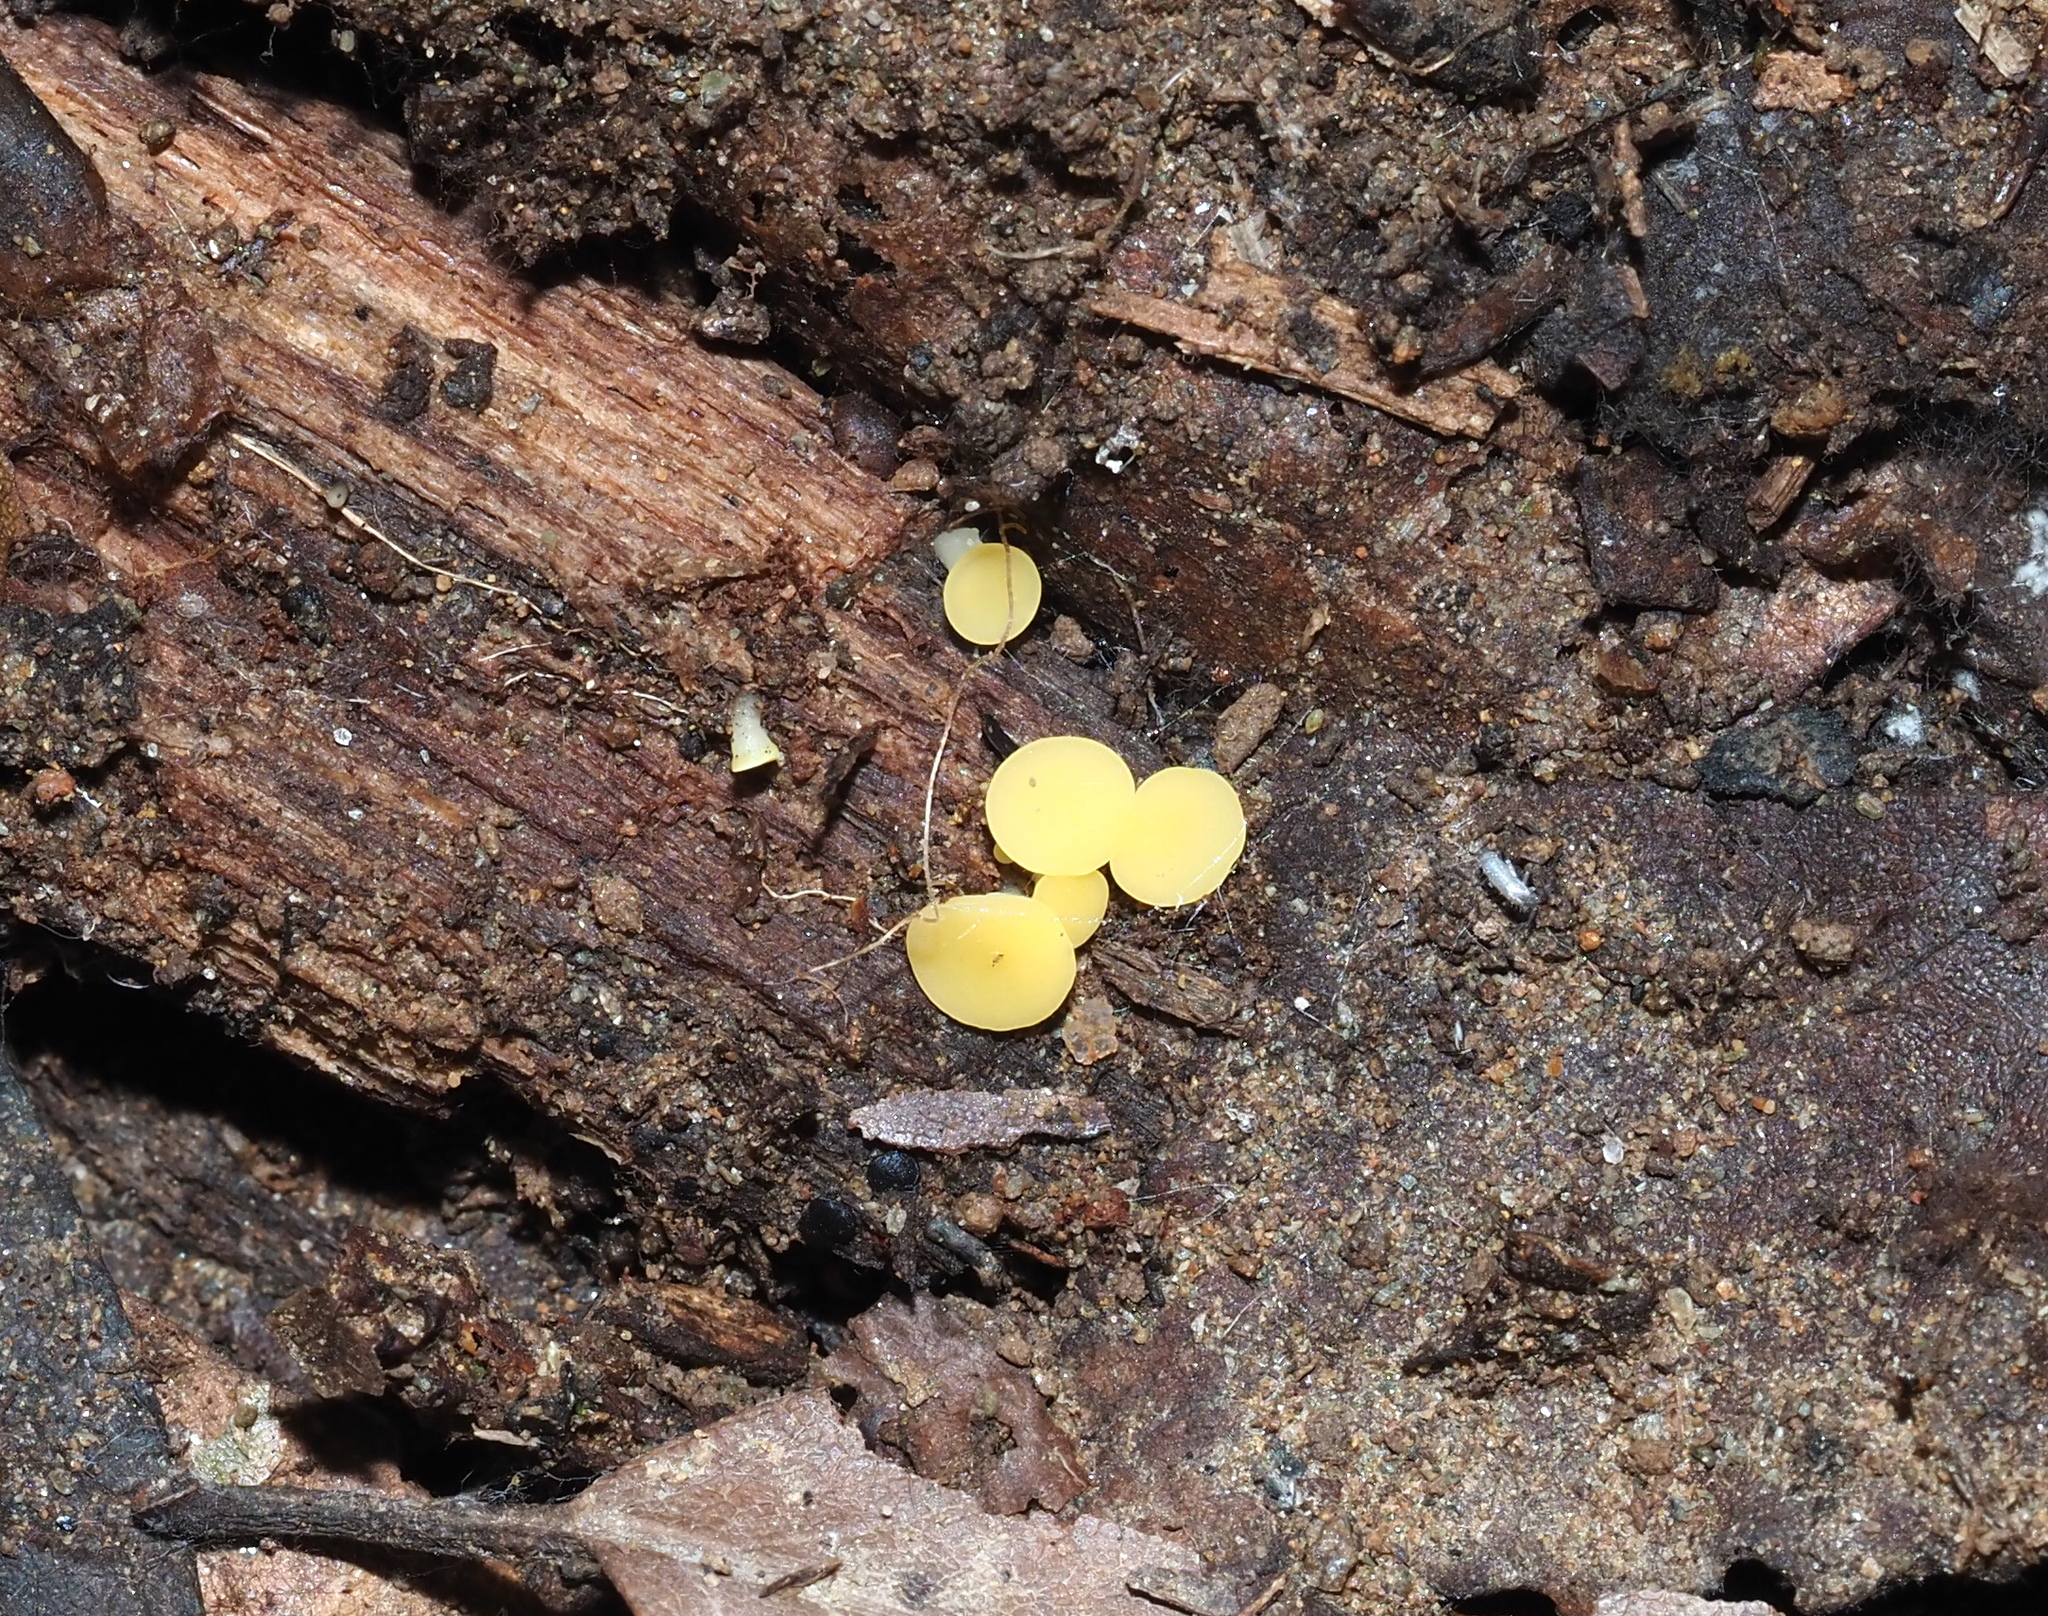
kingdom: Fungi
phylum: Ascomycota
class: Leotiomycetes
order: Helotiales
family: Pezizellaceae
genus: Calycina
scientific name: Calycina citrina
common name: Yellow fairy cups
